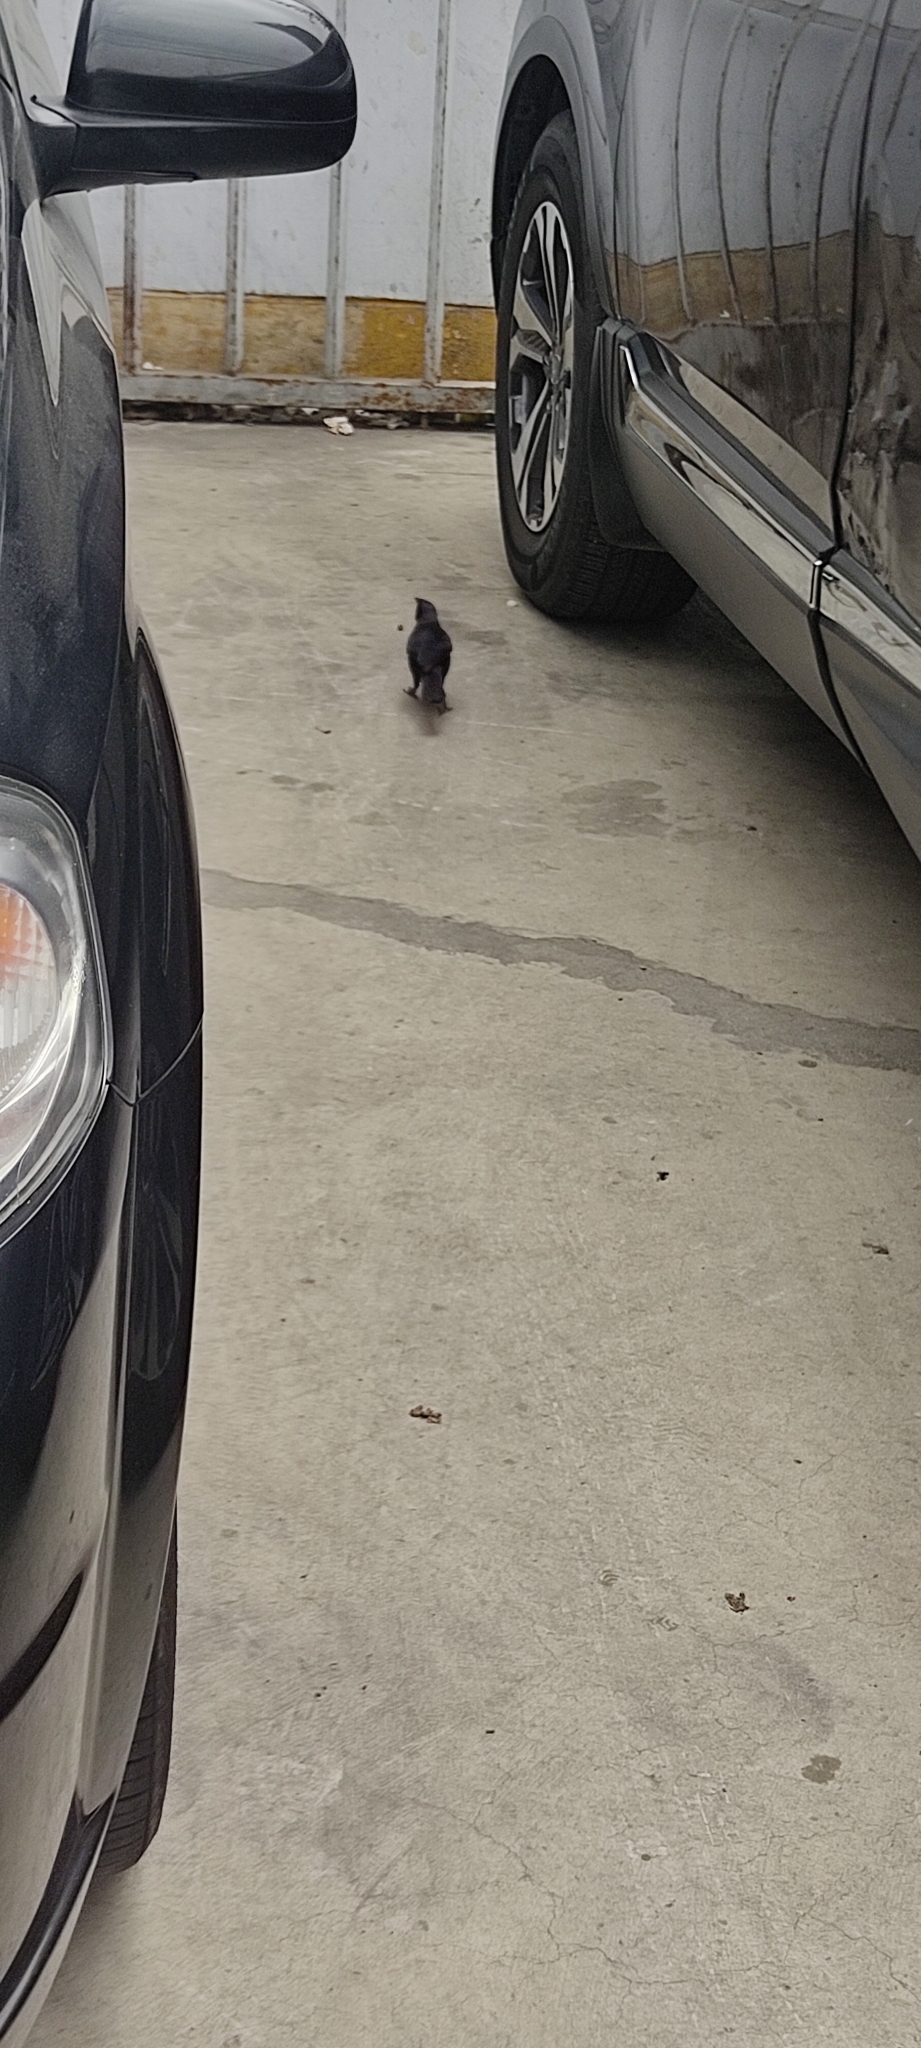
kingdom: Animalia
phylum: Chordata
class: Aves
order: Passeriformes
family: Icteridae
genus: Molothrus
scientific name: Molothrus bonariensis
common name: Shiny cowbird
